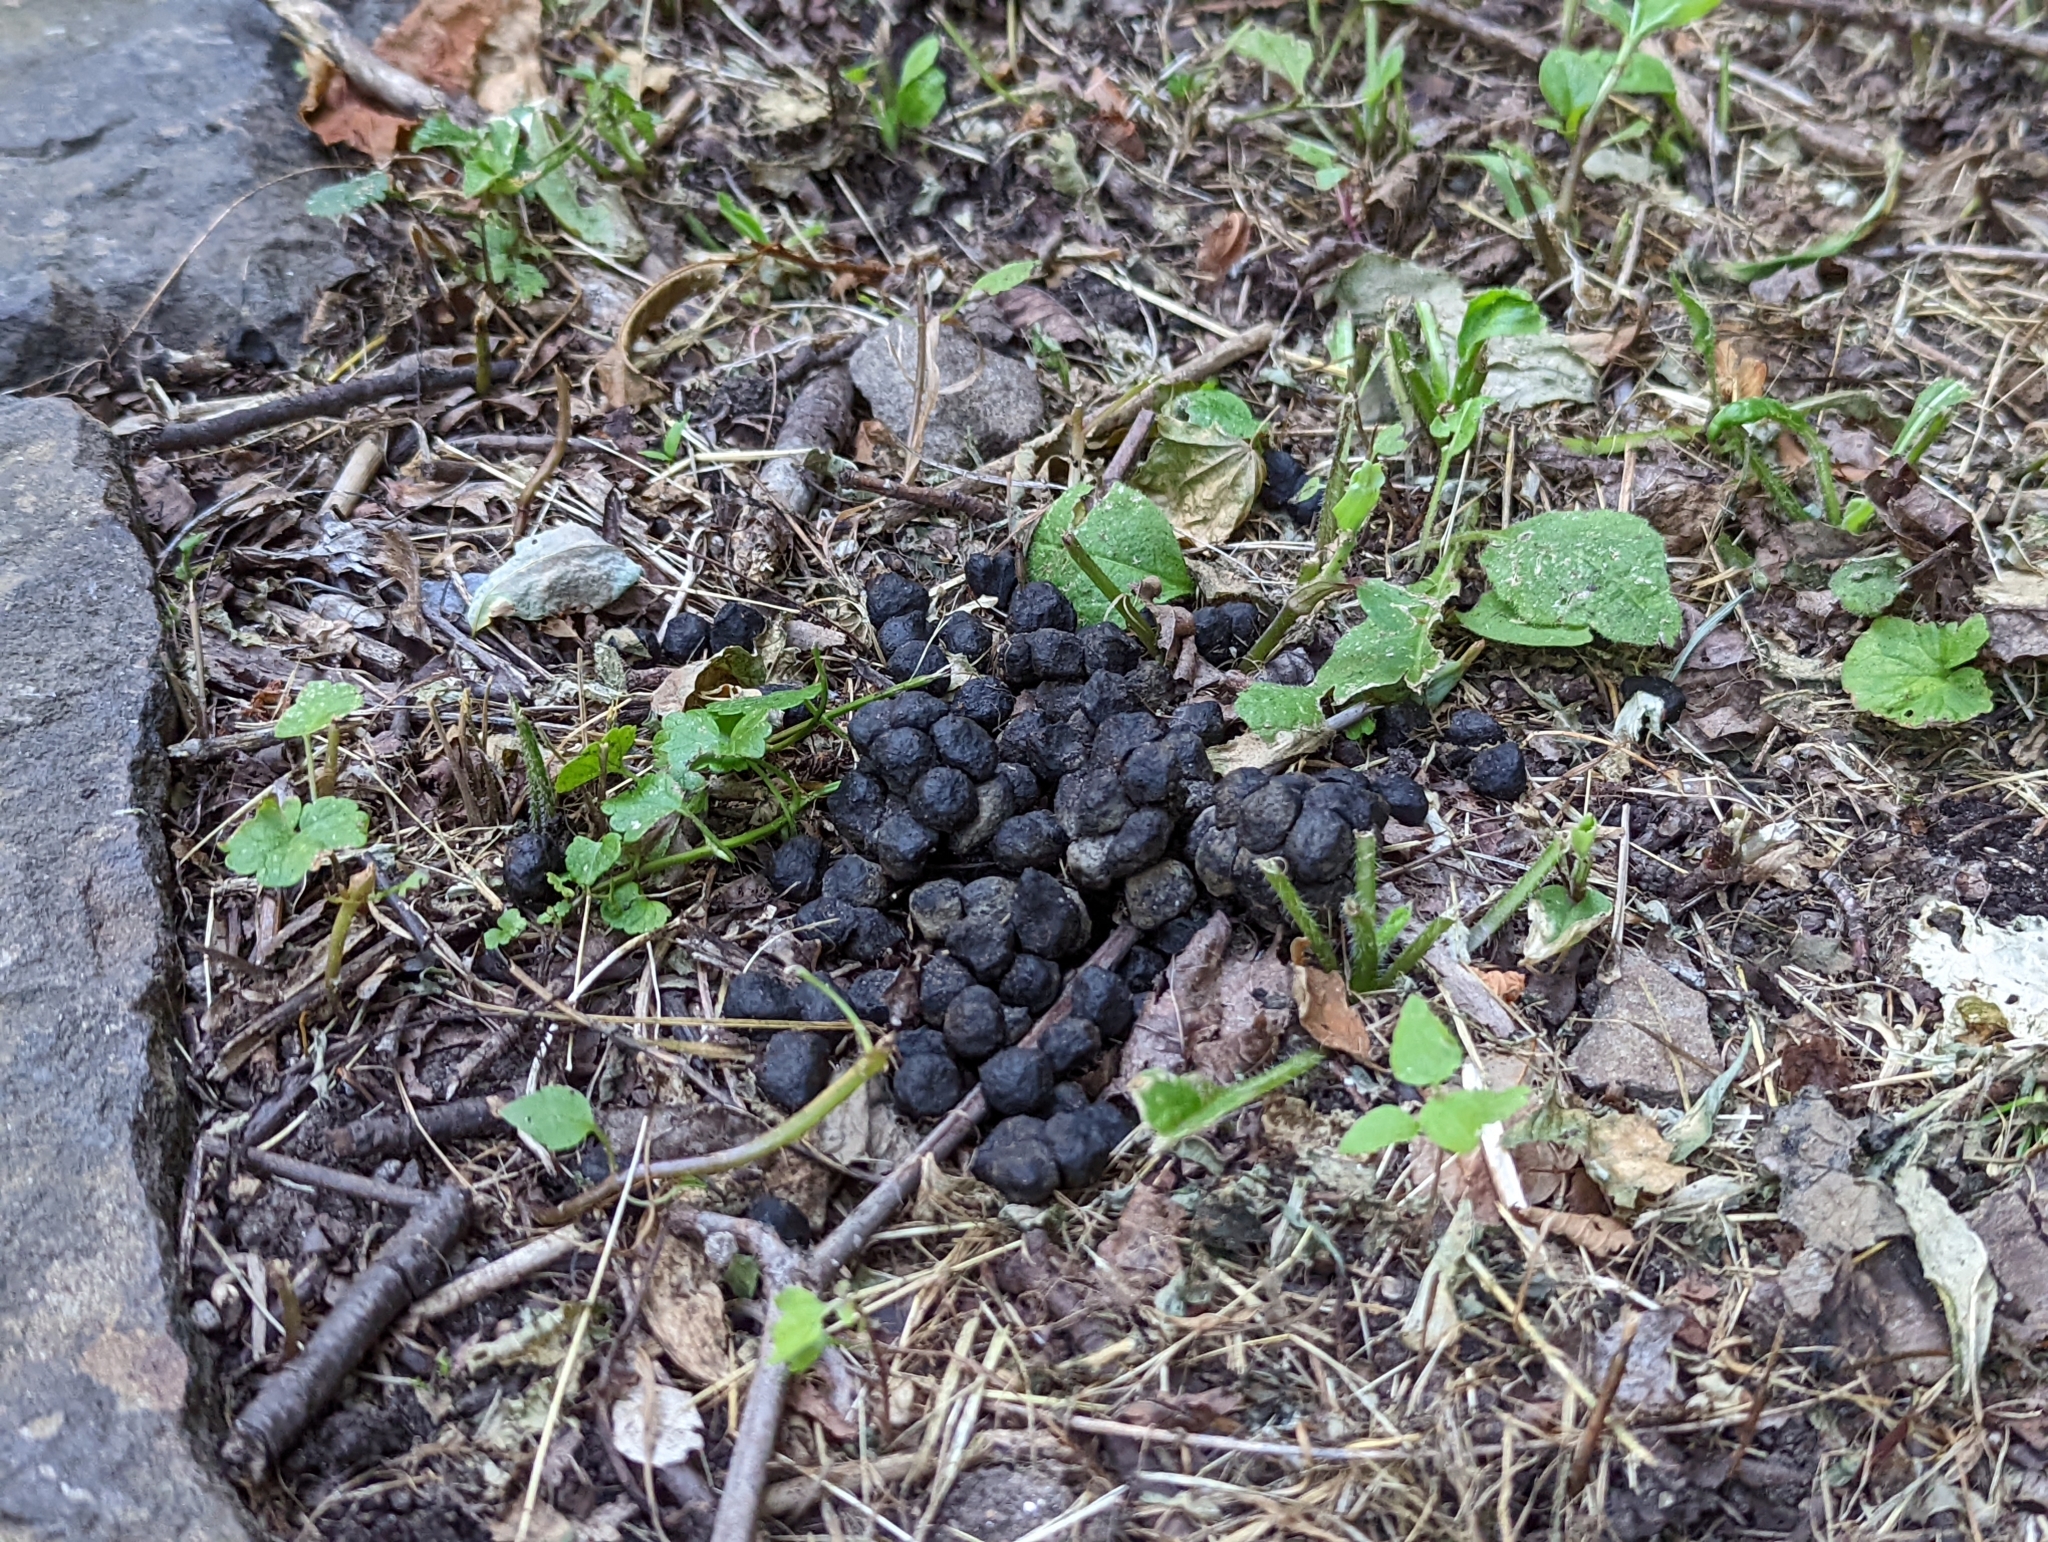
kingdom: Animalia
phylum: Chordata
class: Mammalia
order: Artiodactyla
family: Cervidae
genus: Odocoileus
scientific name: Odocoileus virginianus
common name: White-tailed deer
